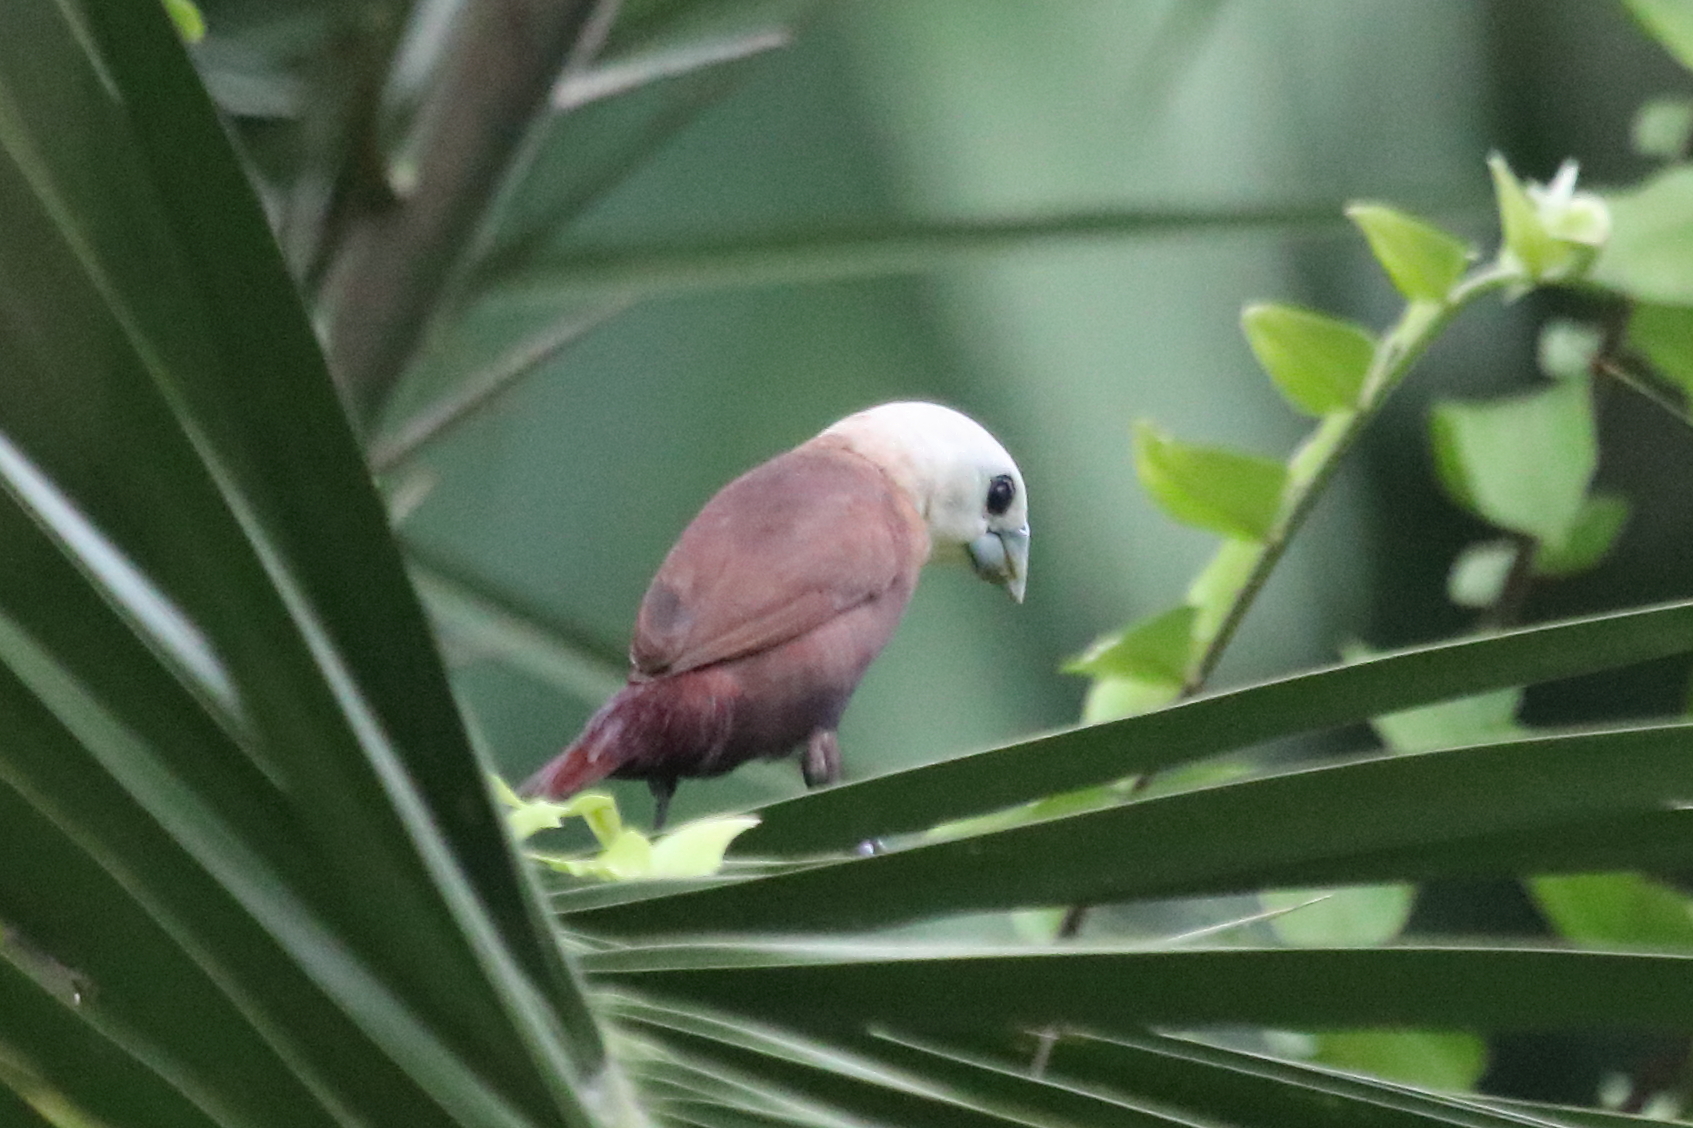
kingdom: Animalia
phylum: Chordata
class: Aves
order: Passeriformes
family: Estrildidae
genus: Lonchura
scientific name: Lonchura maja
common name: White-headed munia
